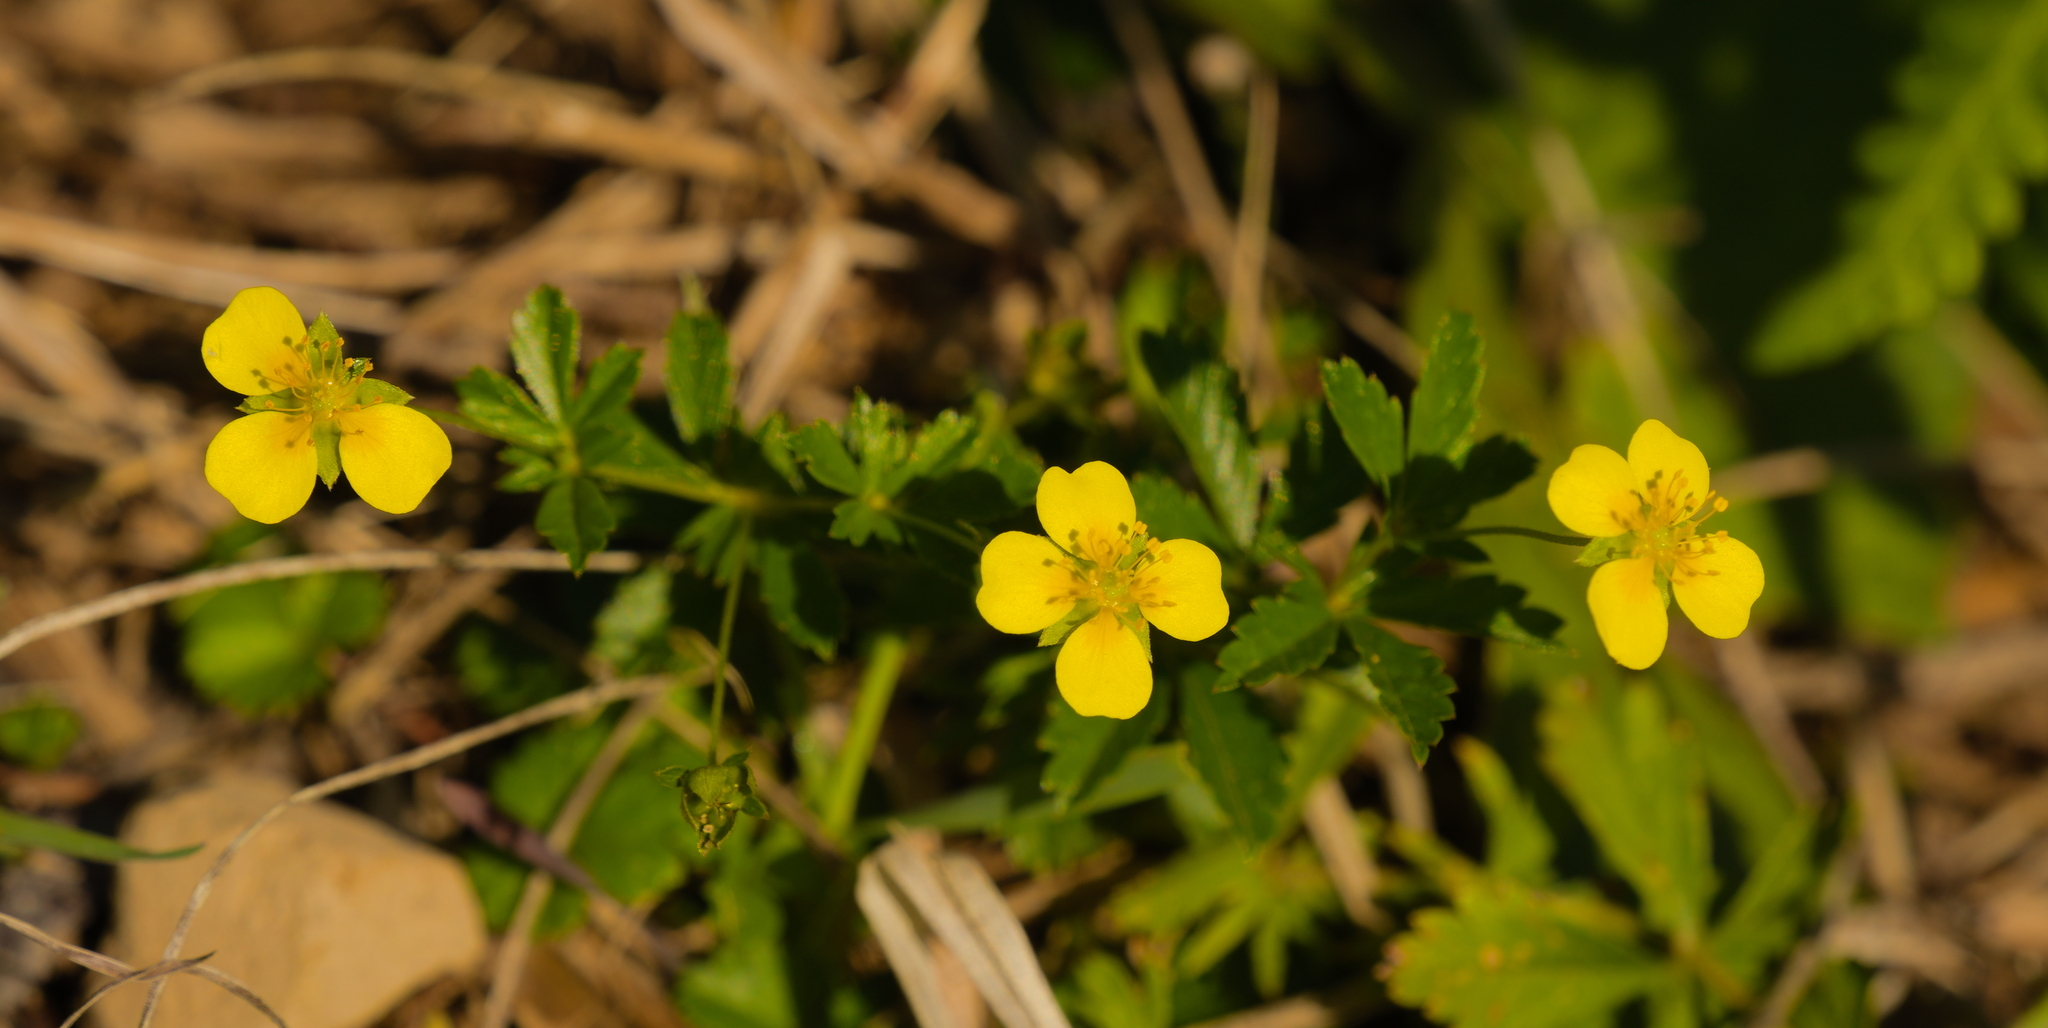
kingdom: Plantae
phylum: Tracheophyta
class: Magnoliopsida
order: Rosales
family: Rosaceae
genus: Potentilla
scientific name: Potentilla erecta
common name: Tormentil
